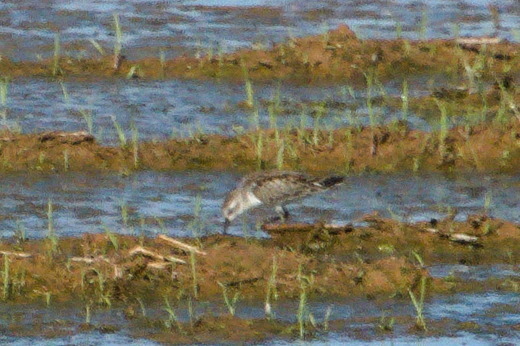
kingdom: Animalia
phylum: Chordata
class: Aves
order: Charadriiformes
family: Scolopacidae
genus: Calidris
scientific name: Calidris mauri
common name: Western sandpiper
